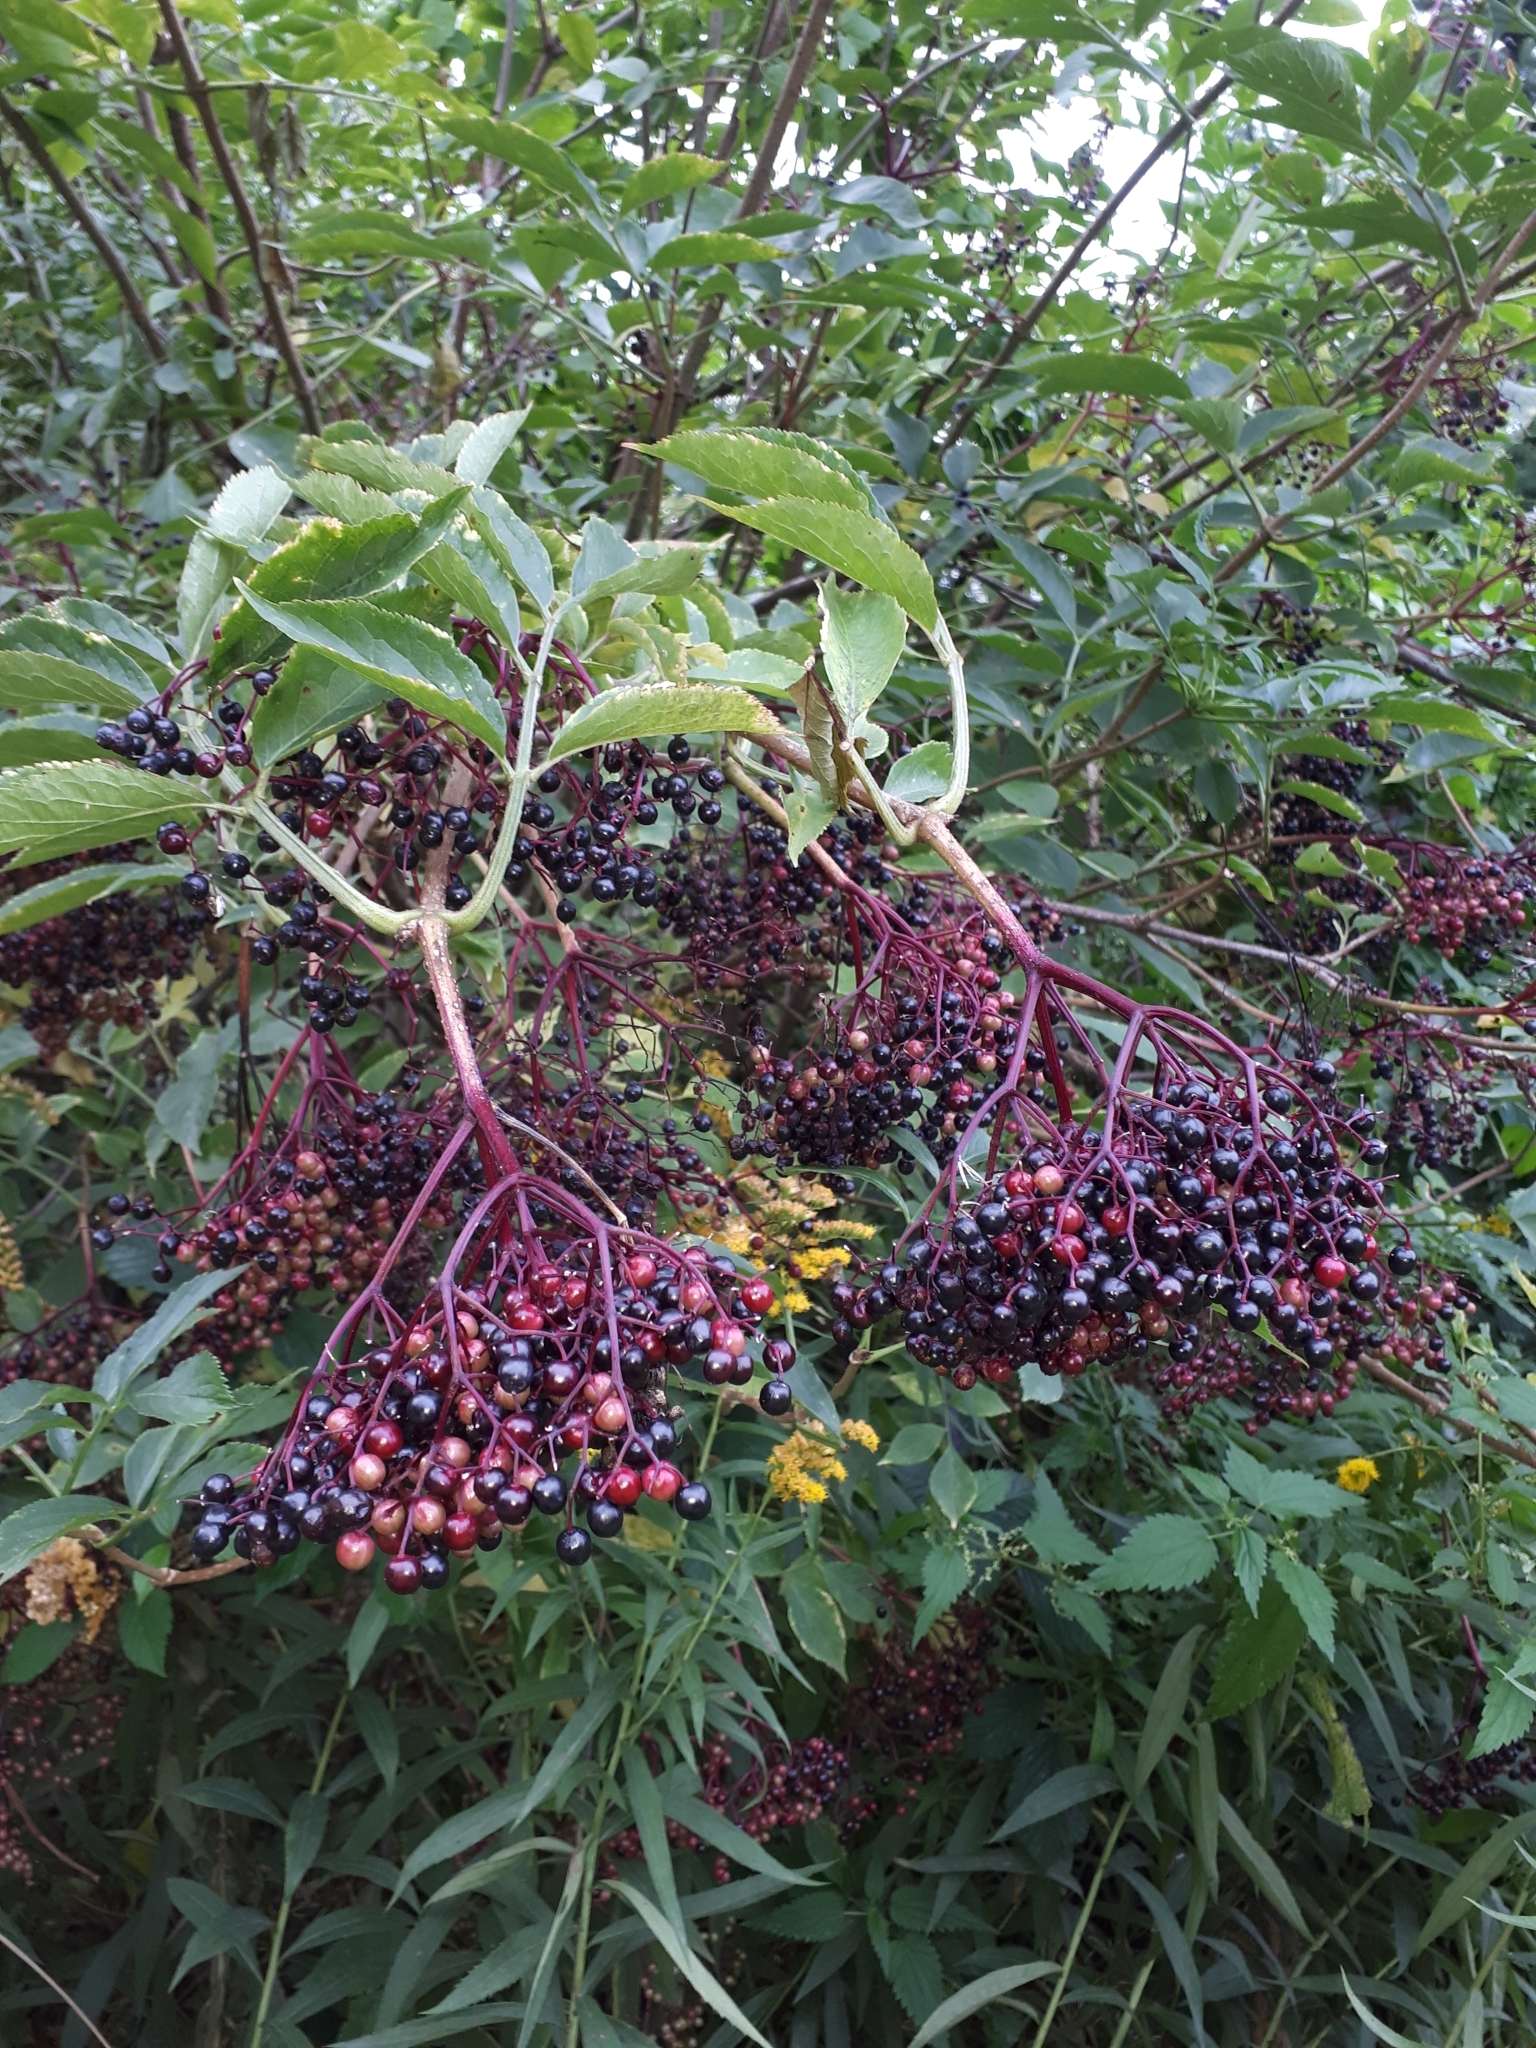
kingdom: Plantae
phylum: Tracheophyta
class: Magnoliopsida
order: Dipsacales
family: Viburnaceae
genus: Sambucus
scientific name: Sambucus nigra
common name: Elder
